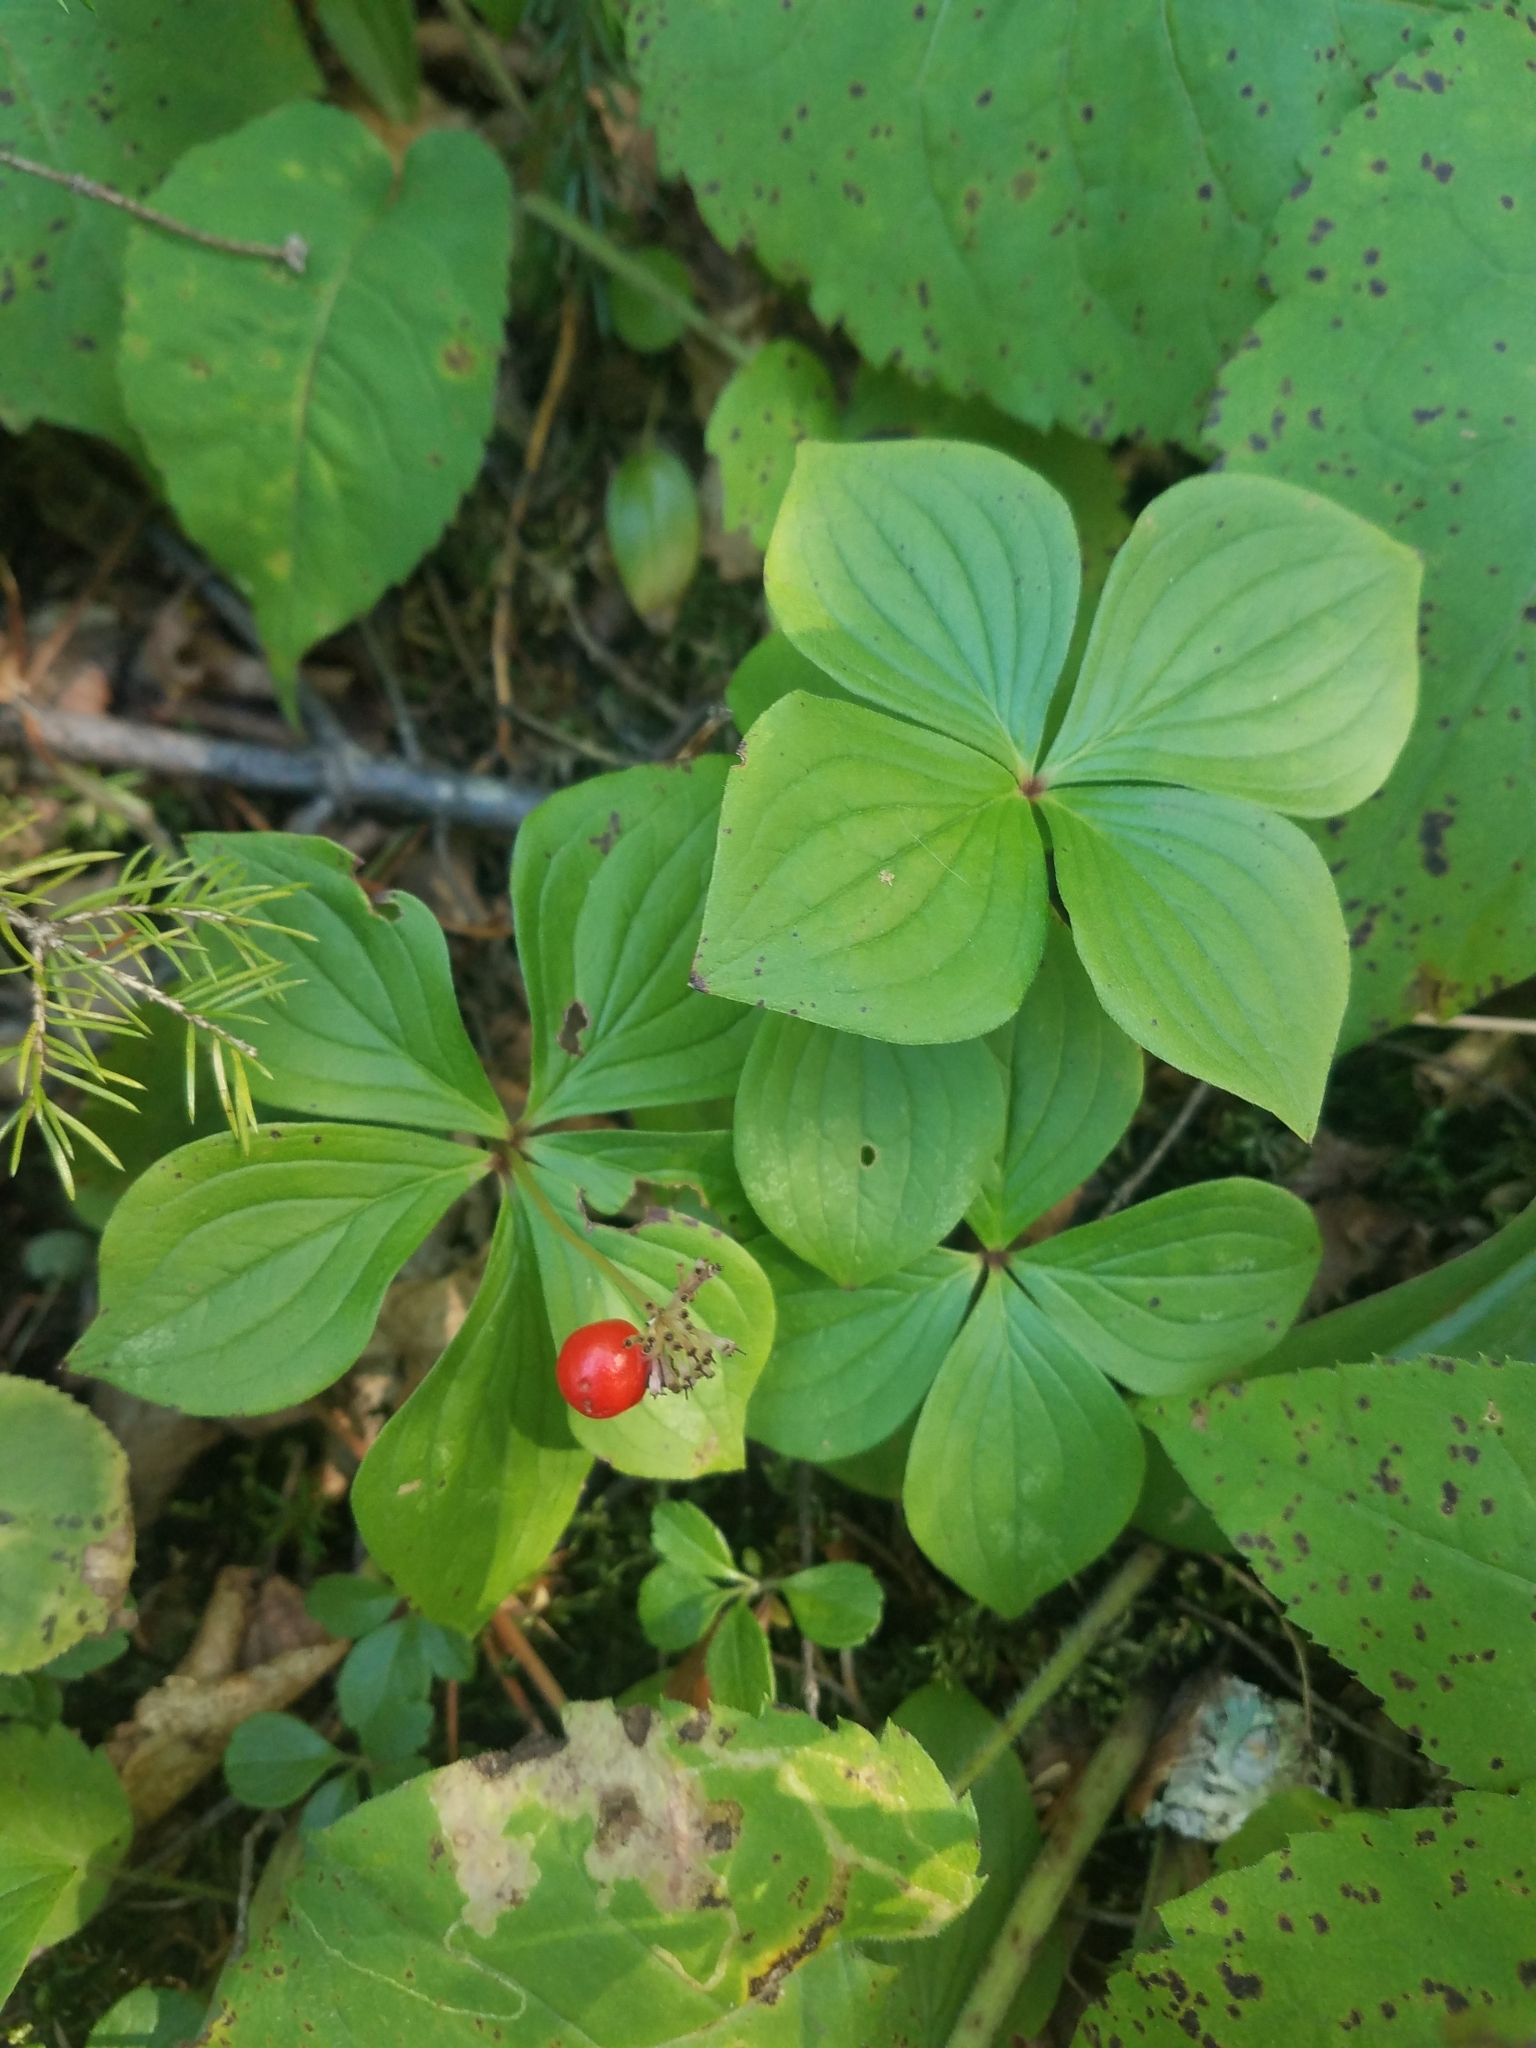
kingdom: Plantae
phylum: Tracheophyta
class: Magnoliopsida
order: Cornales
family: Cornaceae
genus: Cornus
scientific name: Cornus canadensis
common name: Creeping dogwood
